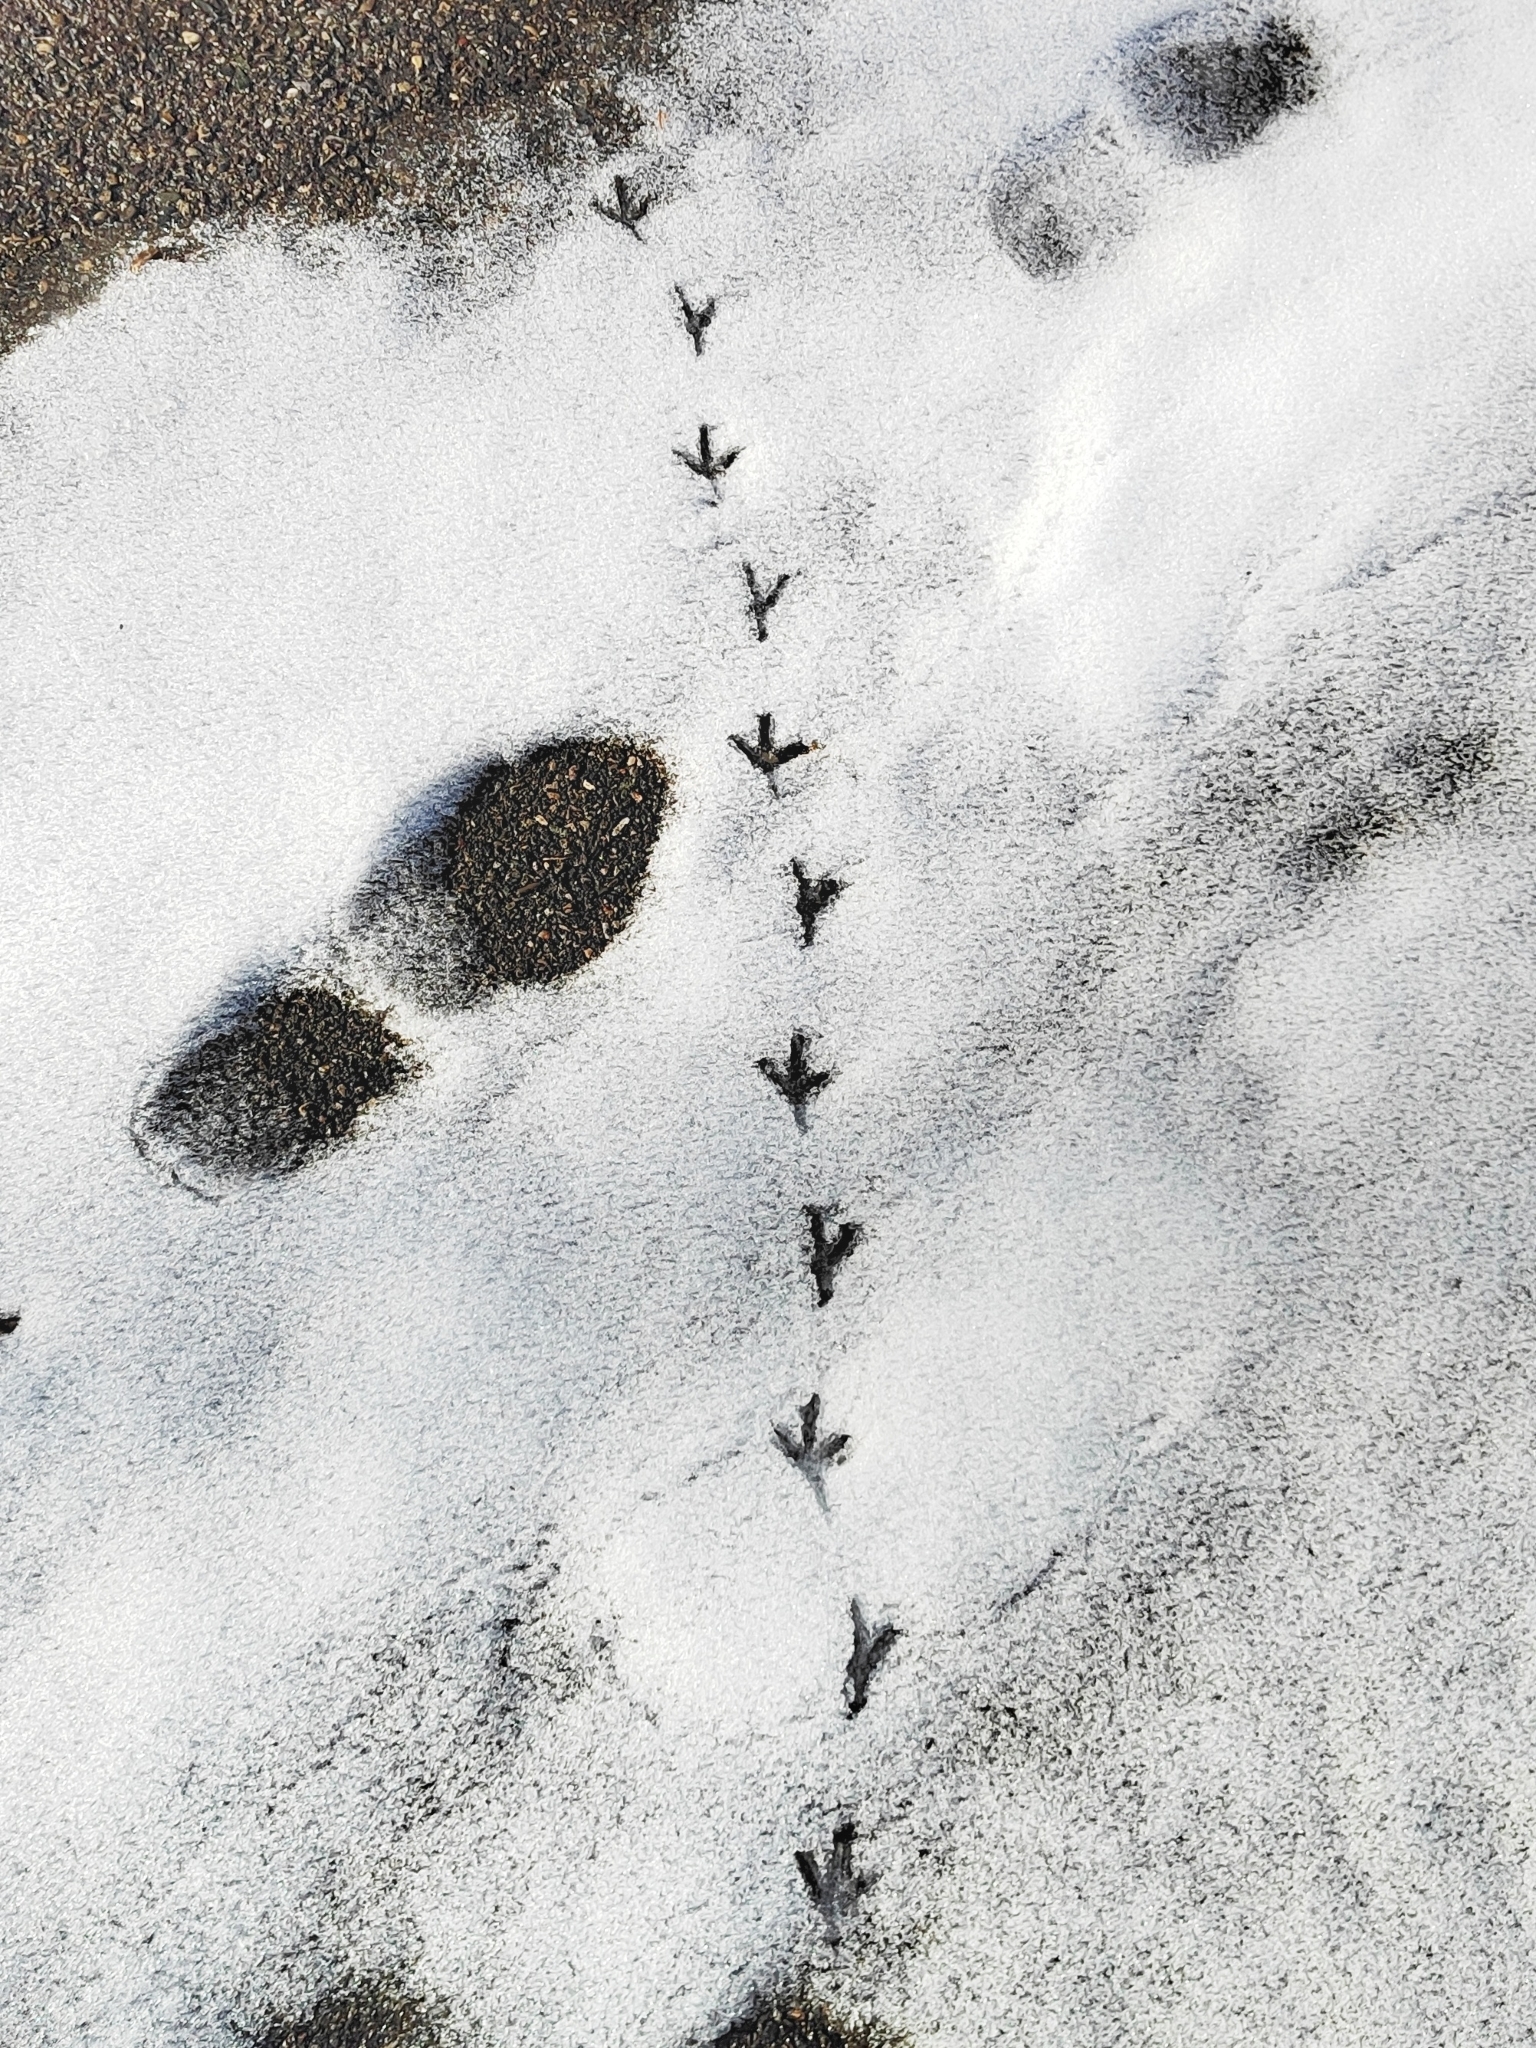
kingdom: Animalia
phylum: Chordata
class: Aves
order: Columbiformes
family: Columbidae
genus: Columba
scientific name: Columba livia
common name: Rock pigeon
